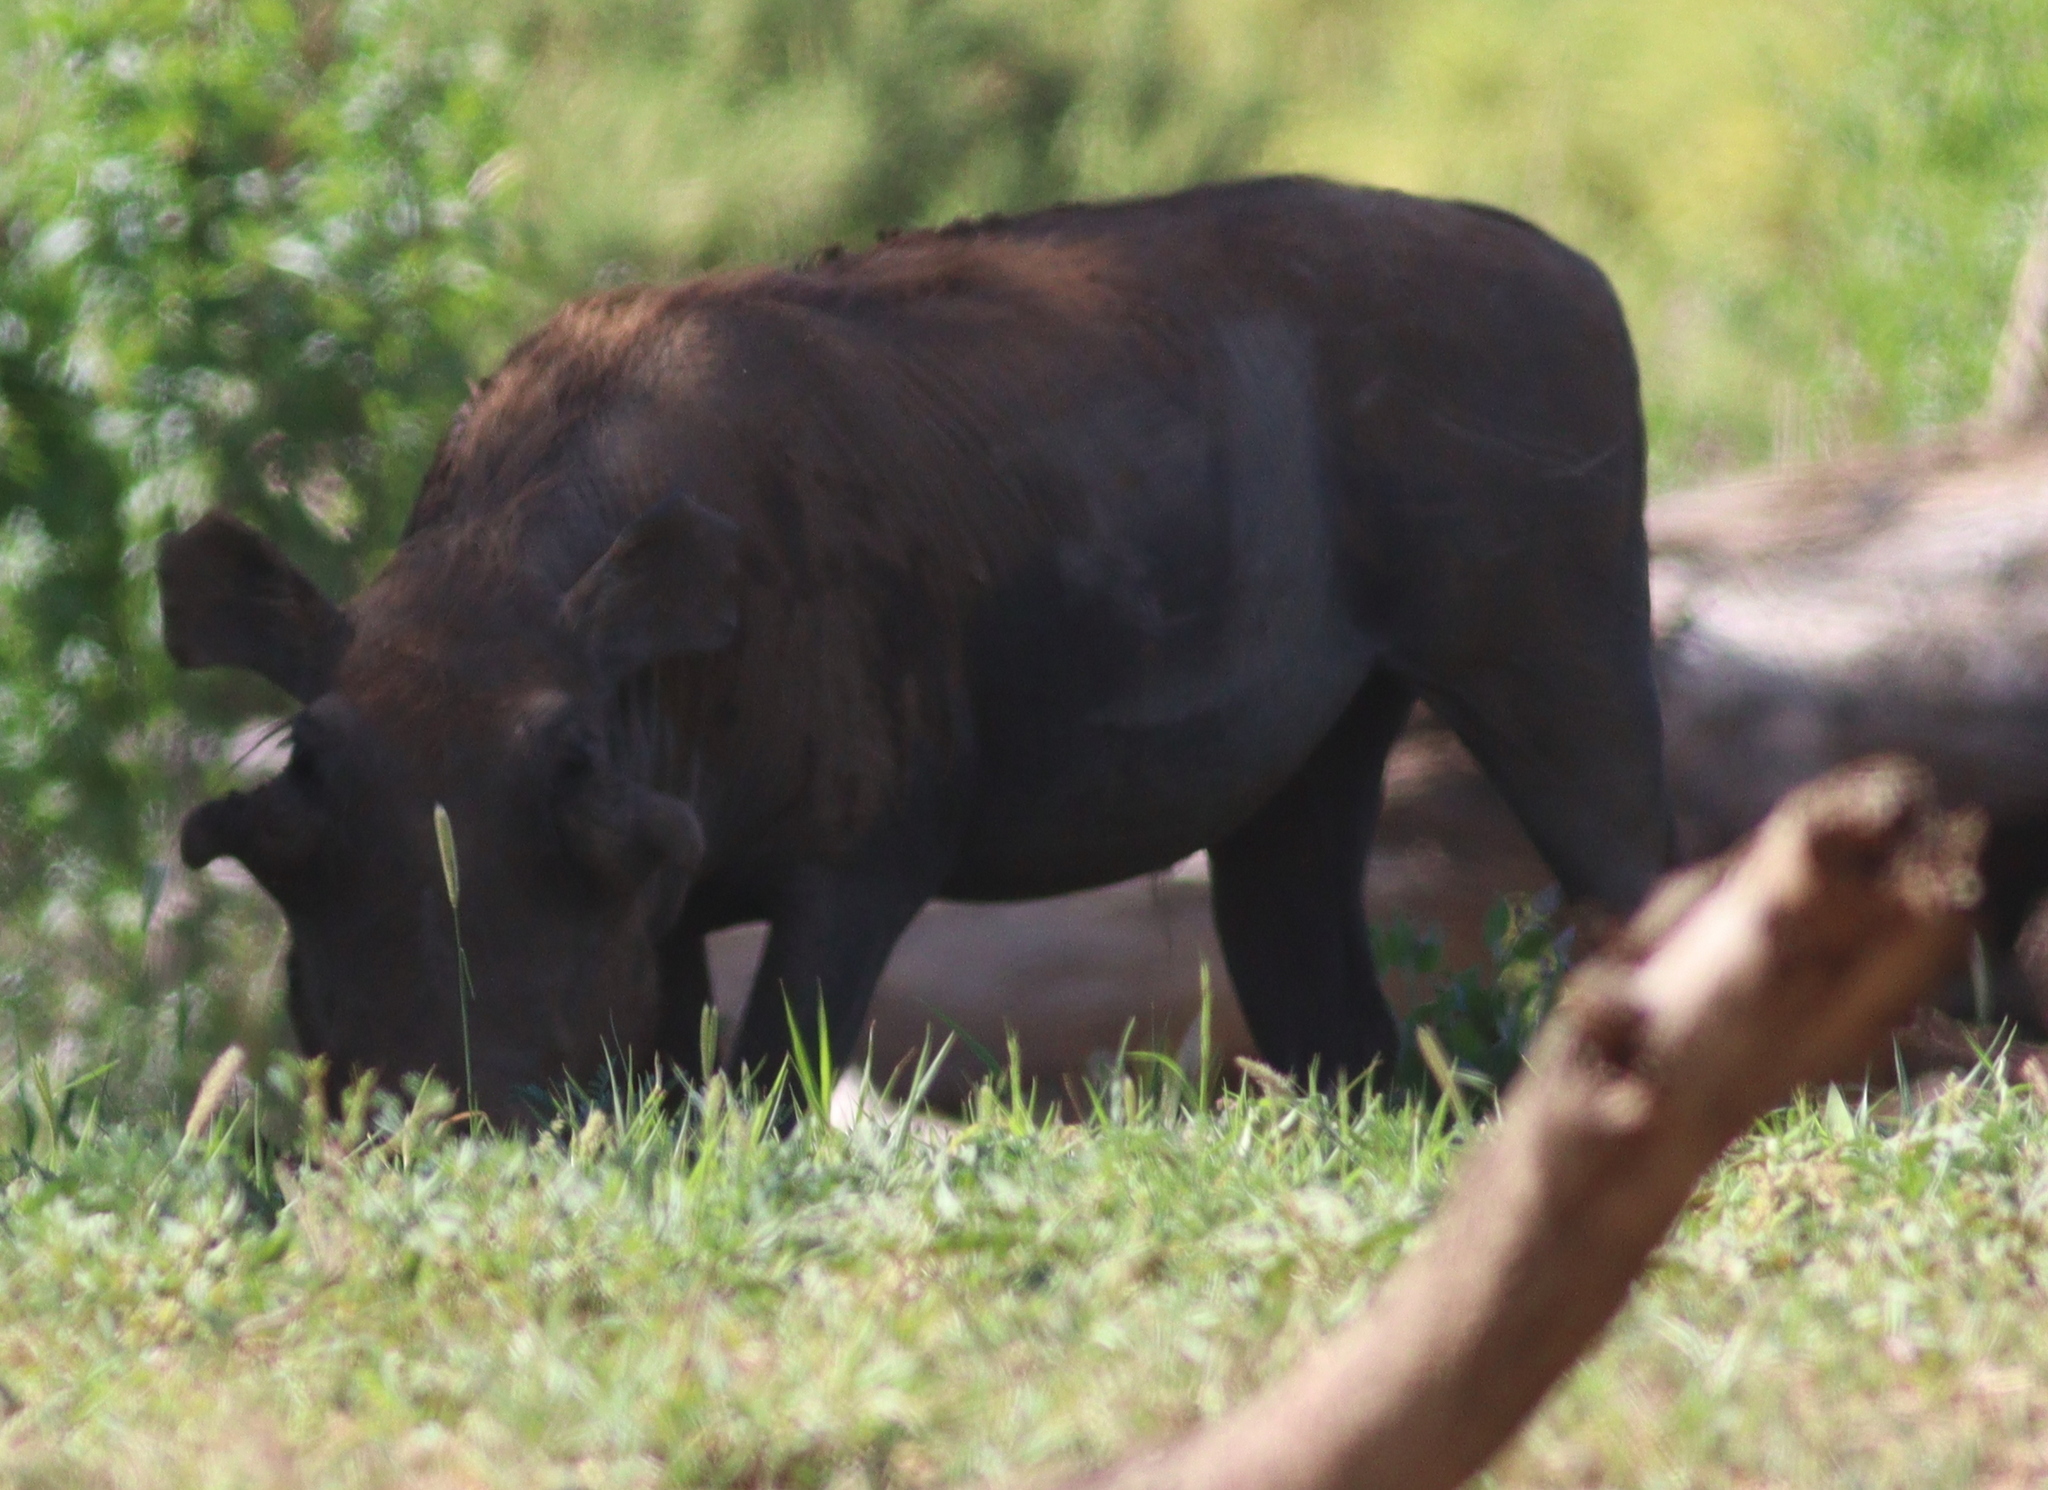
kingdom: Animalia
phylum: Chordata
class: Mammalia
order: Artiodactyla
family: Suidae
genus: Phacochoerus
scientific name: Phacochoerus aethiopicus
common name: Desert warthog
